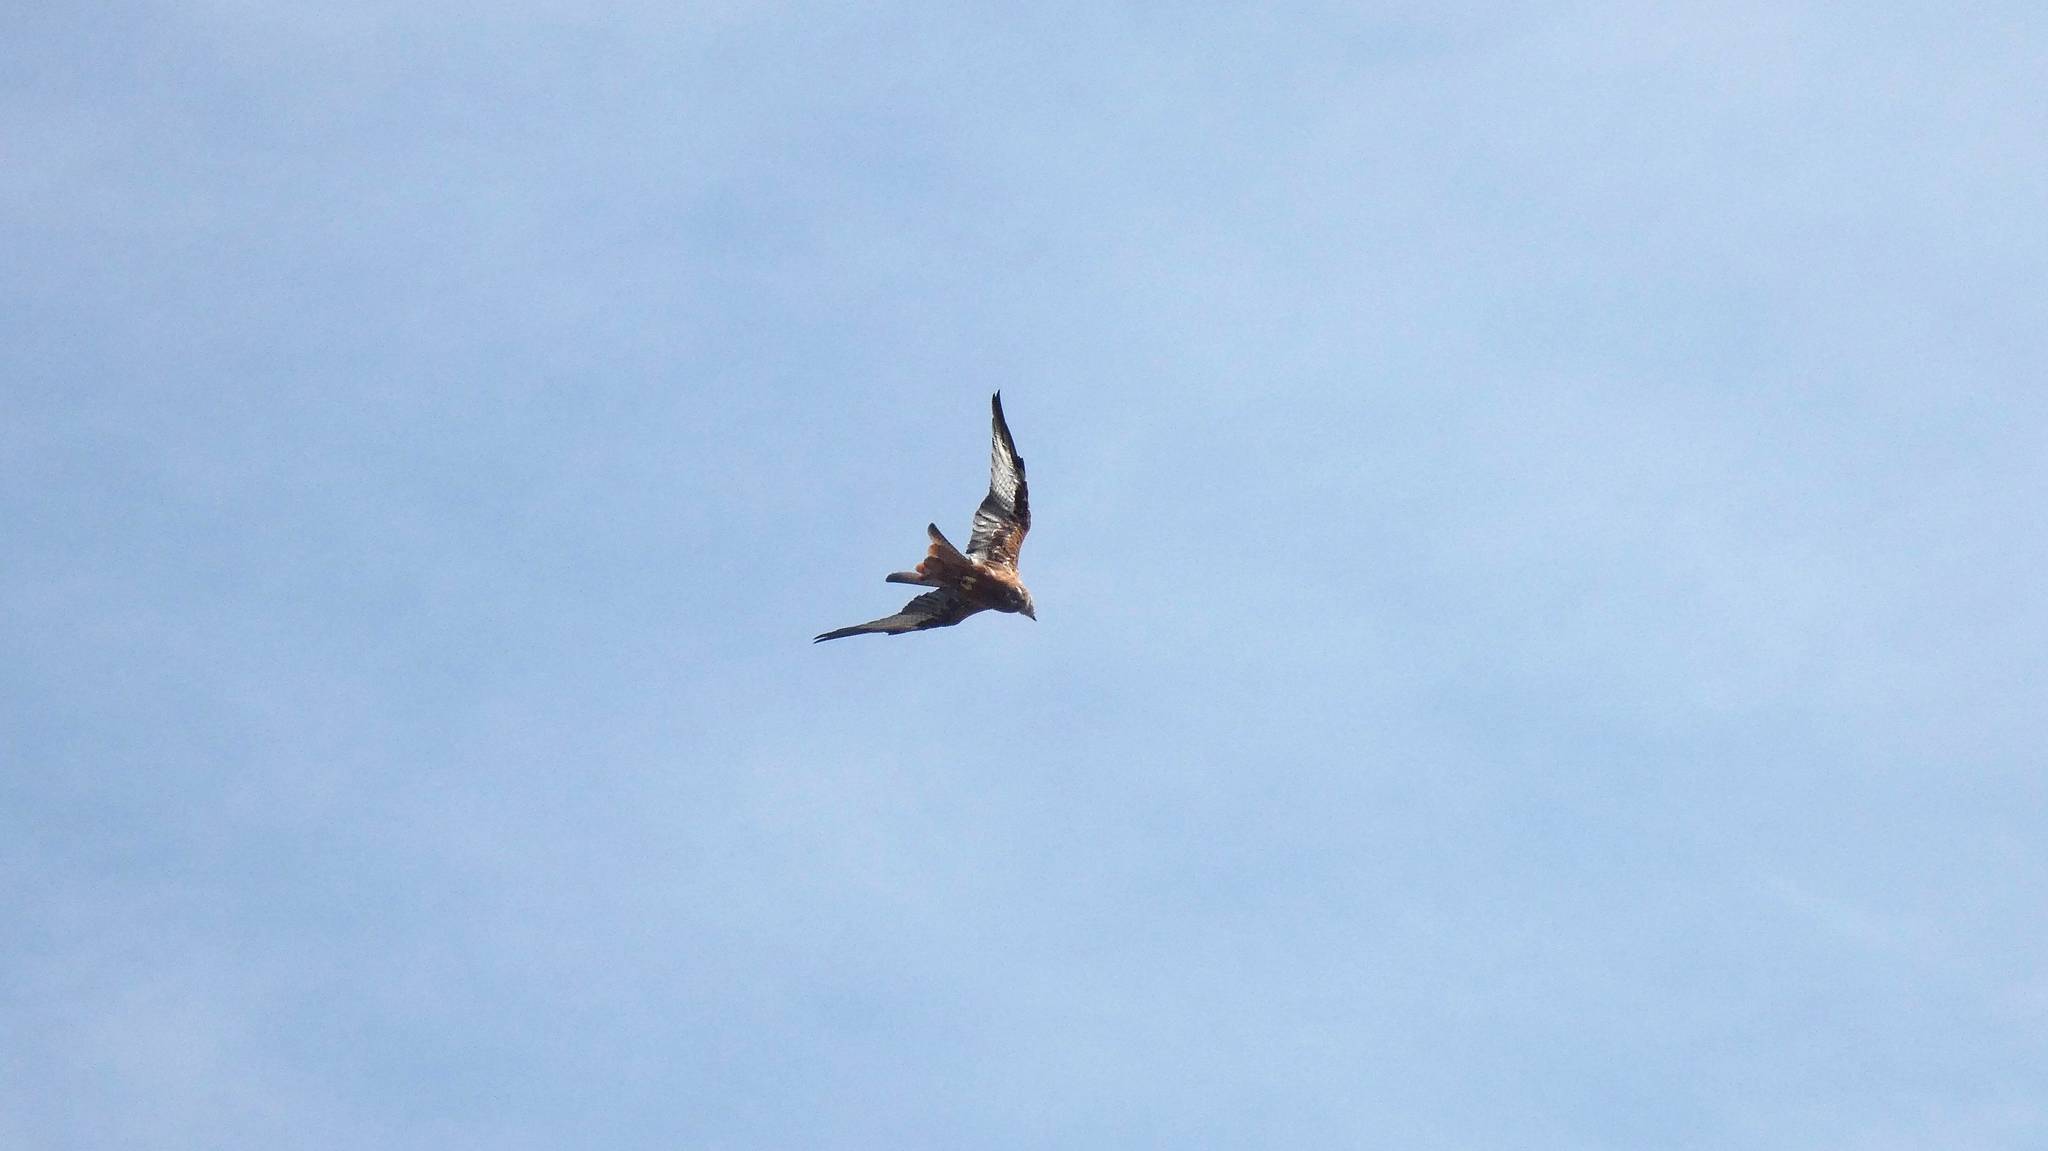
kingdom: Animalia
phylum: Chordata
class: Aves
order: Accipitriformes
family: Accipitridae
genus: Milvus
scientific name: Milvus milvus
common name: Red kite
